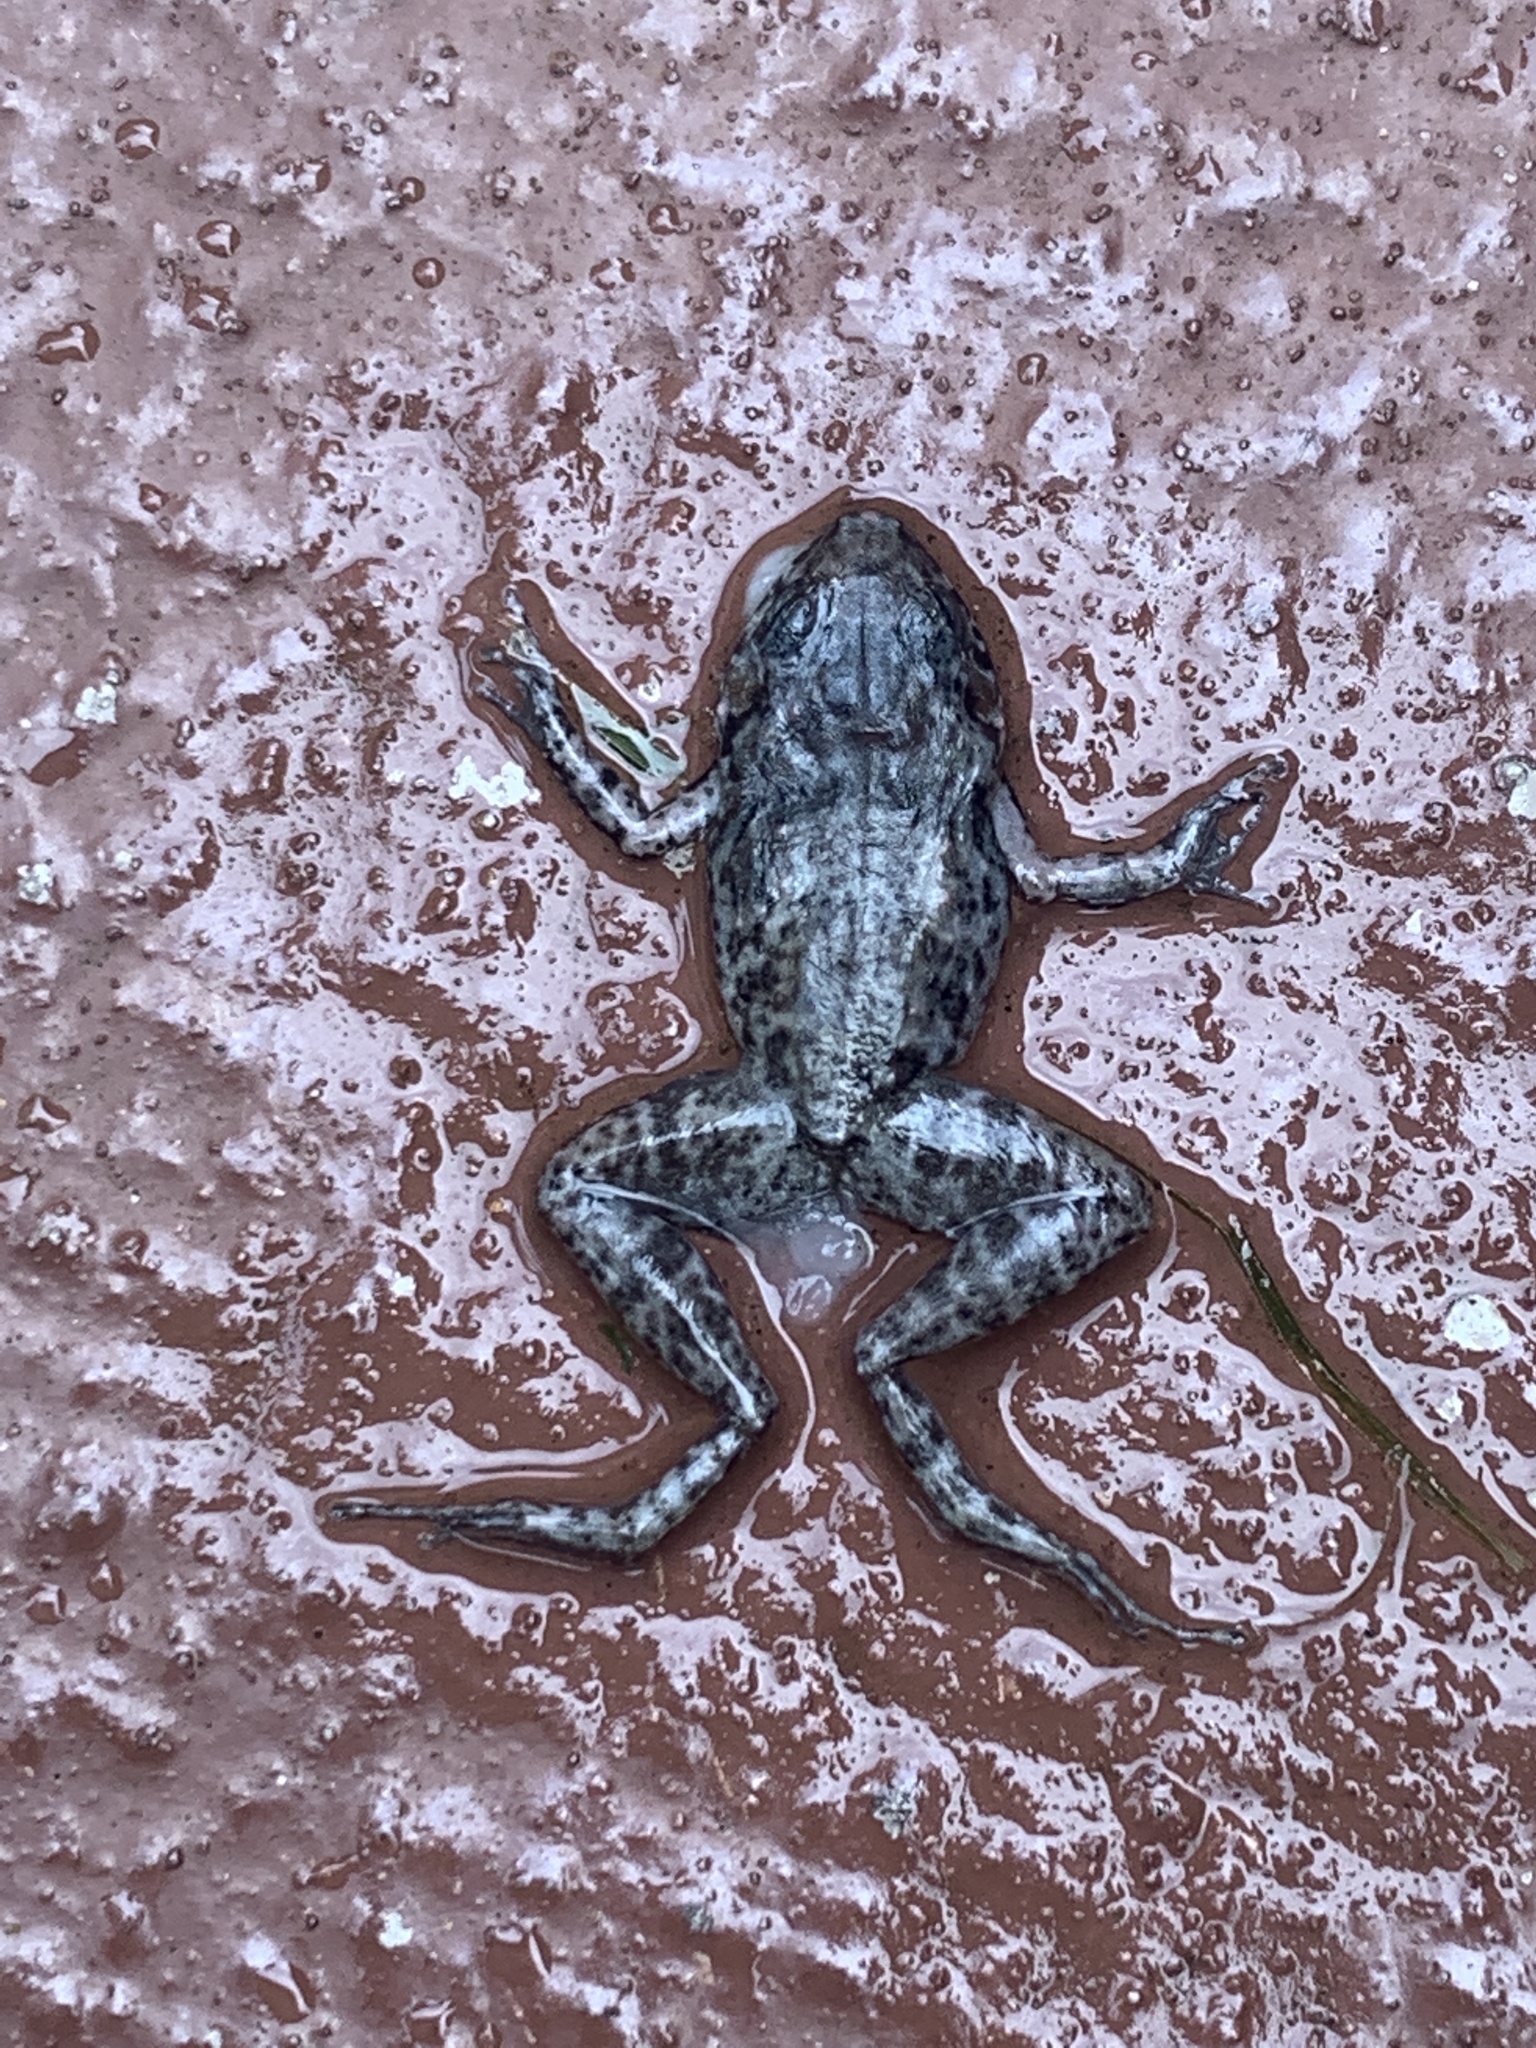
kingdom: Animalia
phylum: Chordata
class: Amphibia
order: Anura
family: Eleutherodactylidae
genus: Eleutherodactylus
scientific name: Eleutherodactylus planirostris
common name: Greenhouse frog
